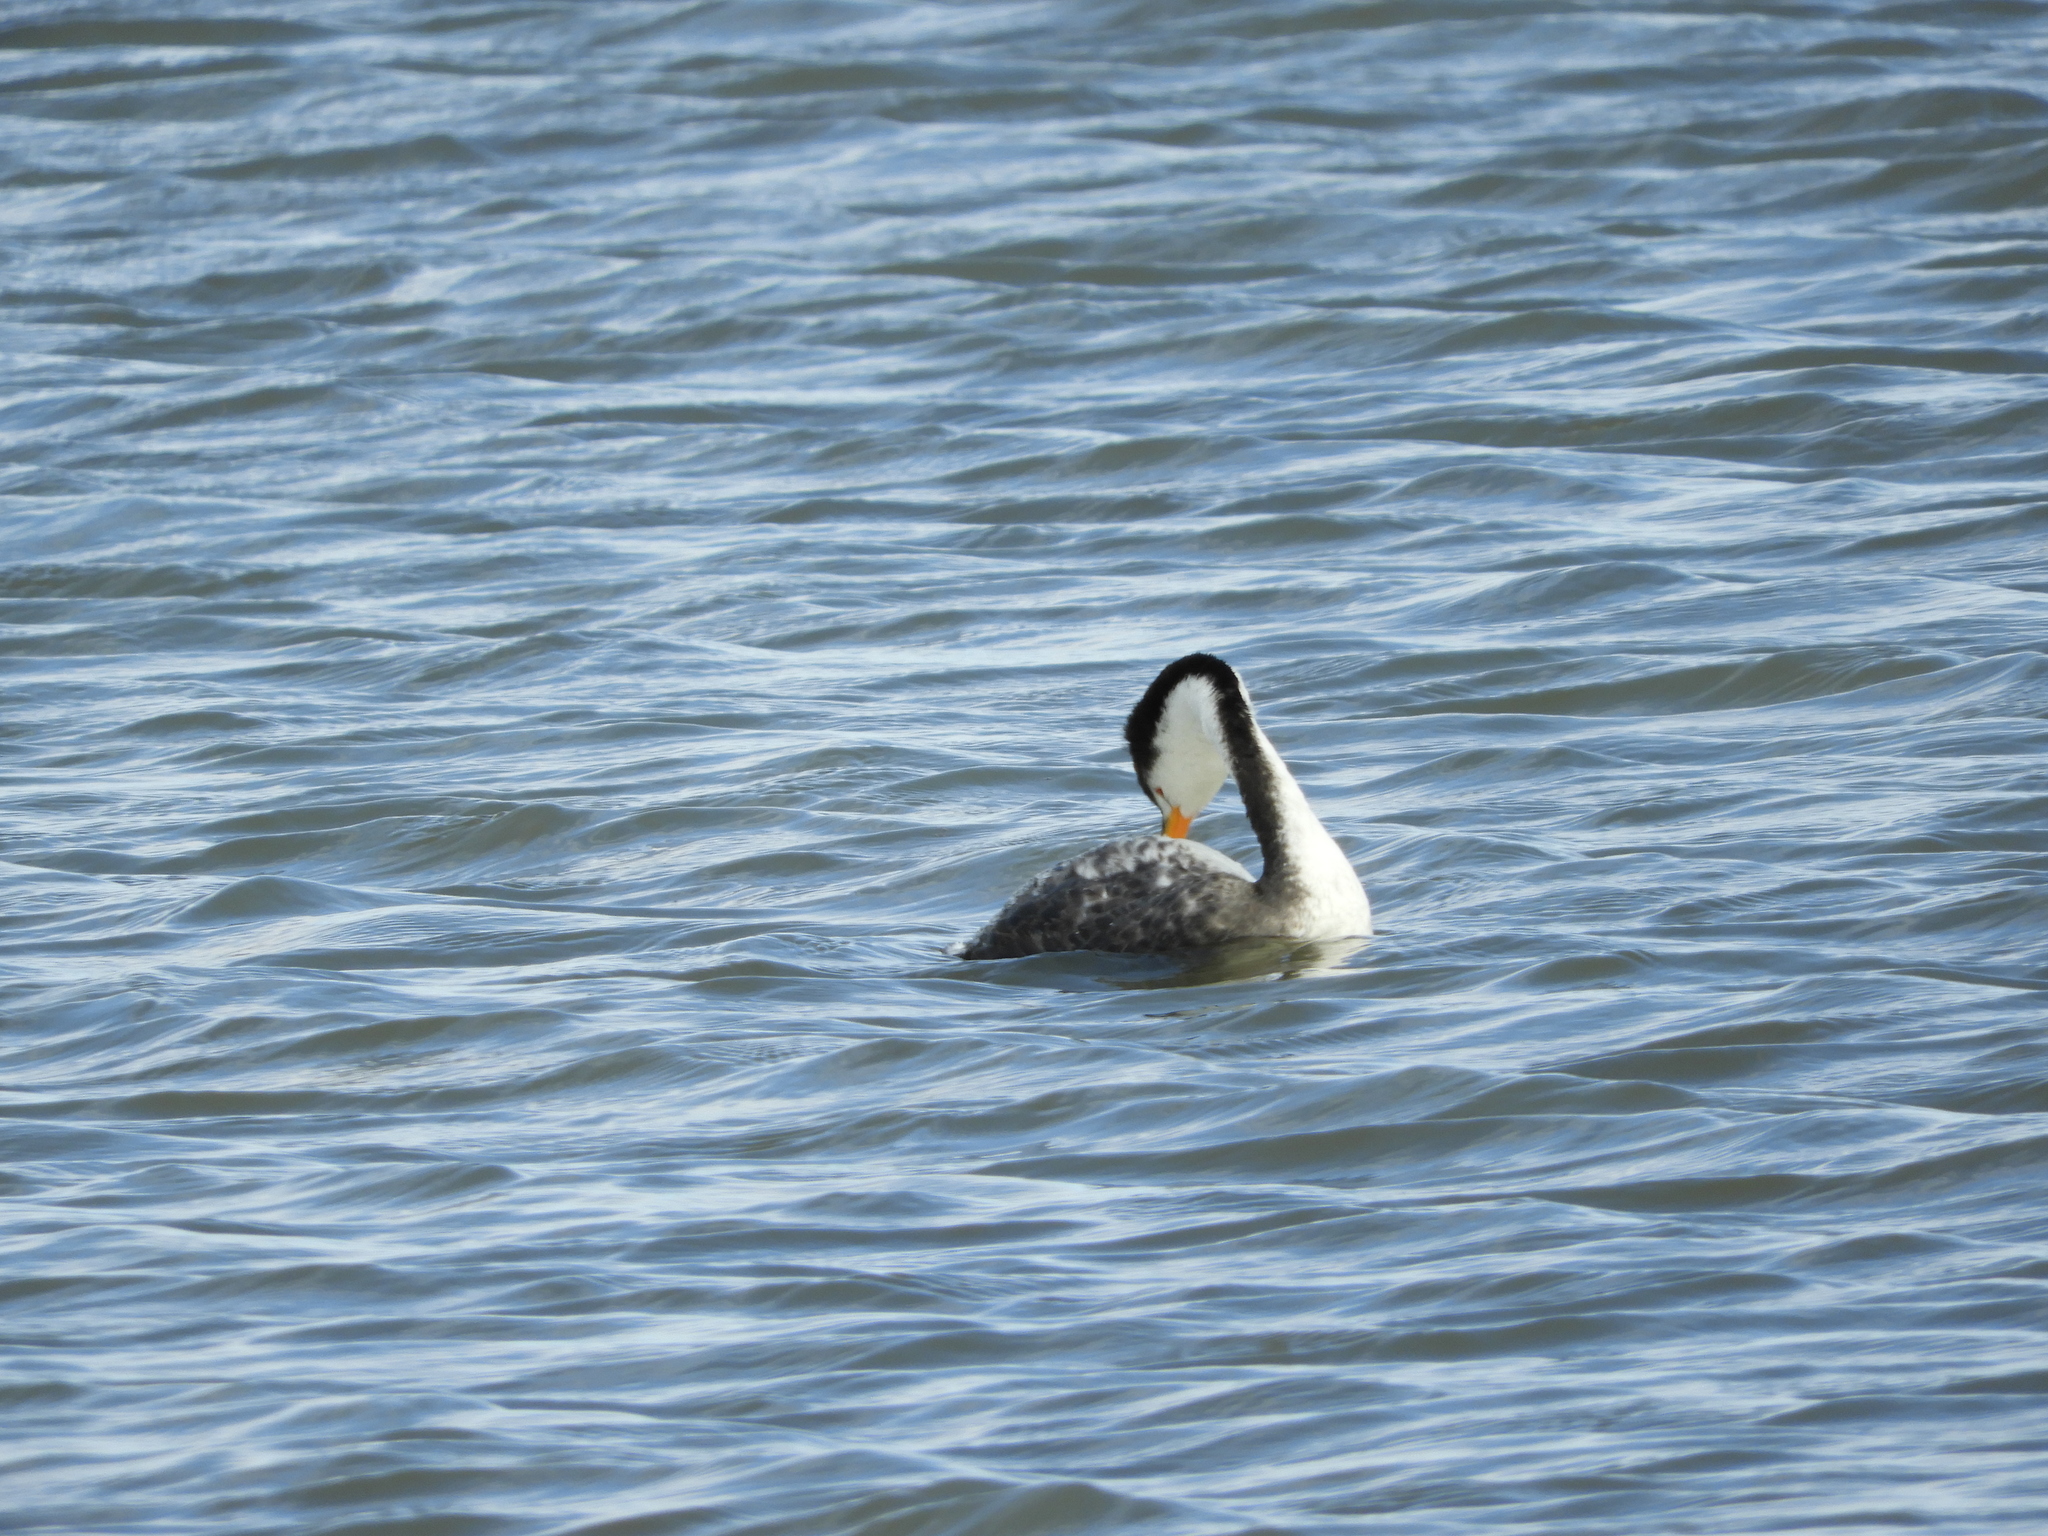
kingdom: Animalia
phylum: Chordata
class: Aves
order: Podicipediformes
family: Podicipedidae
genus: Aechmophorus
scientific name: Aechmophorus clarkii
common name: Clark's grebe
